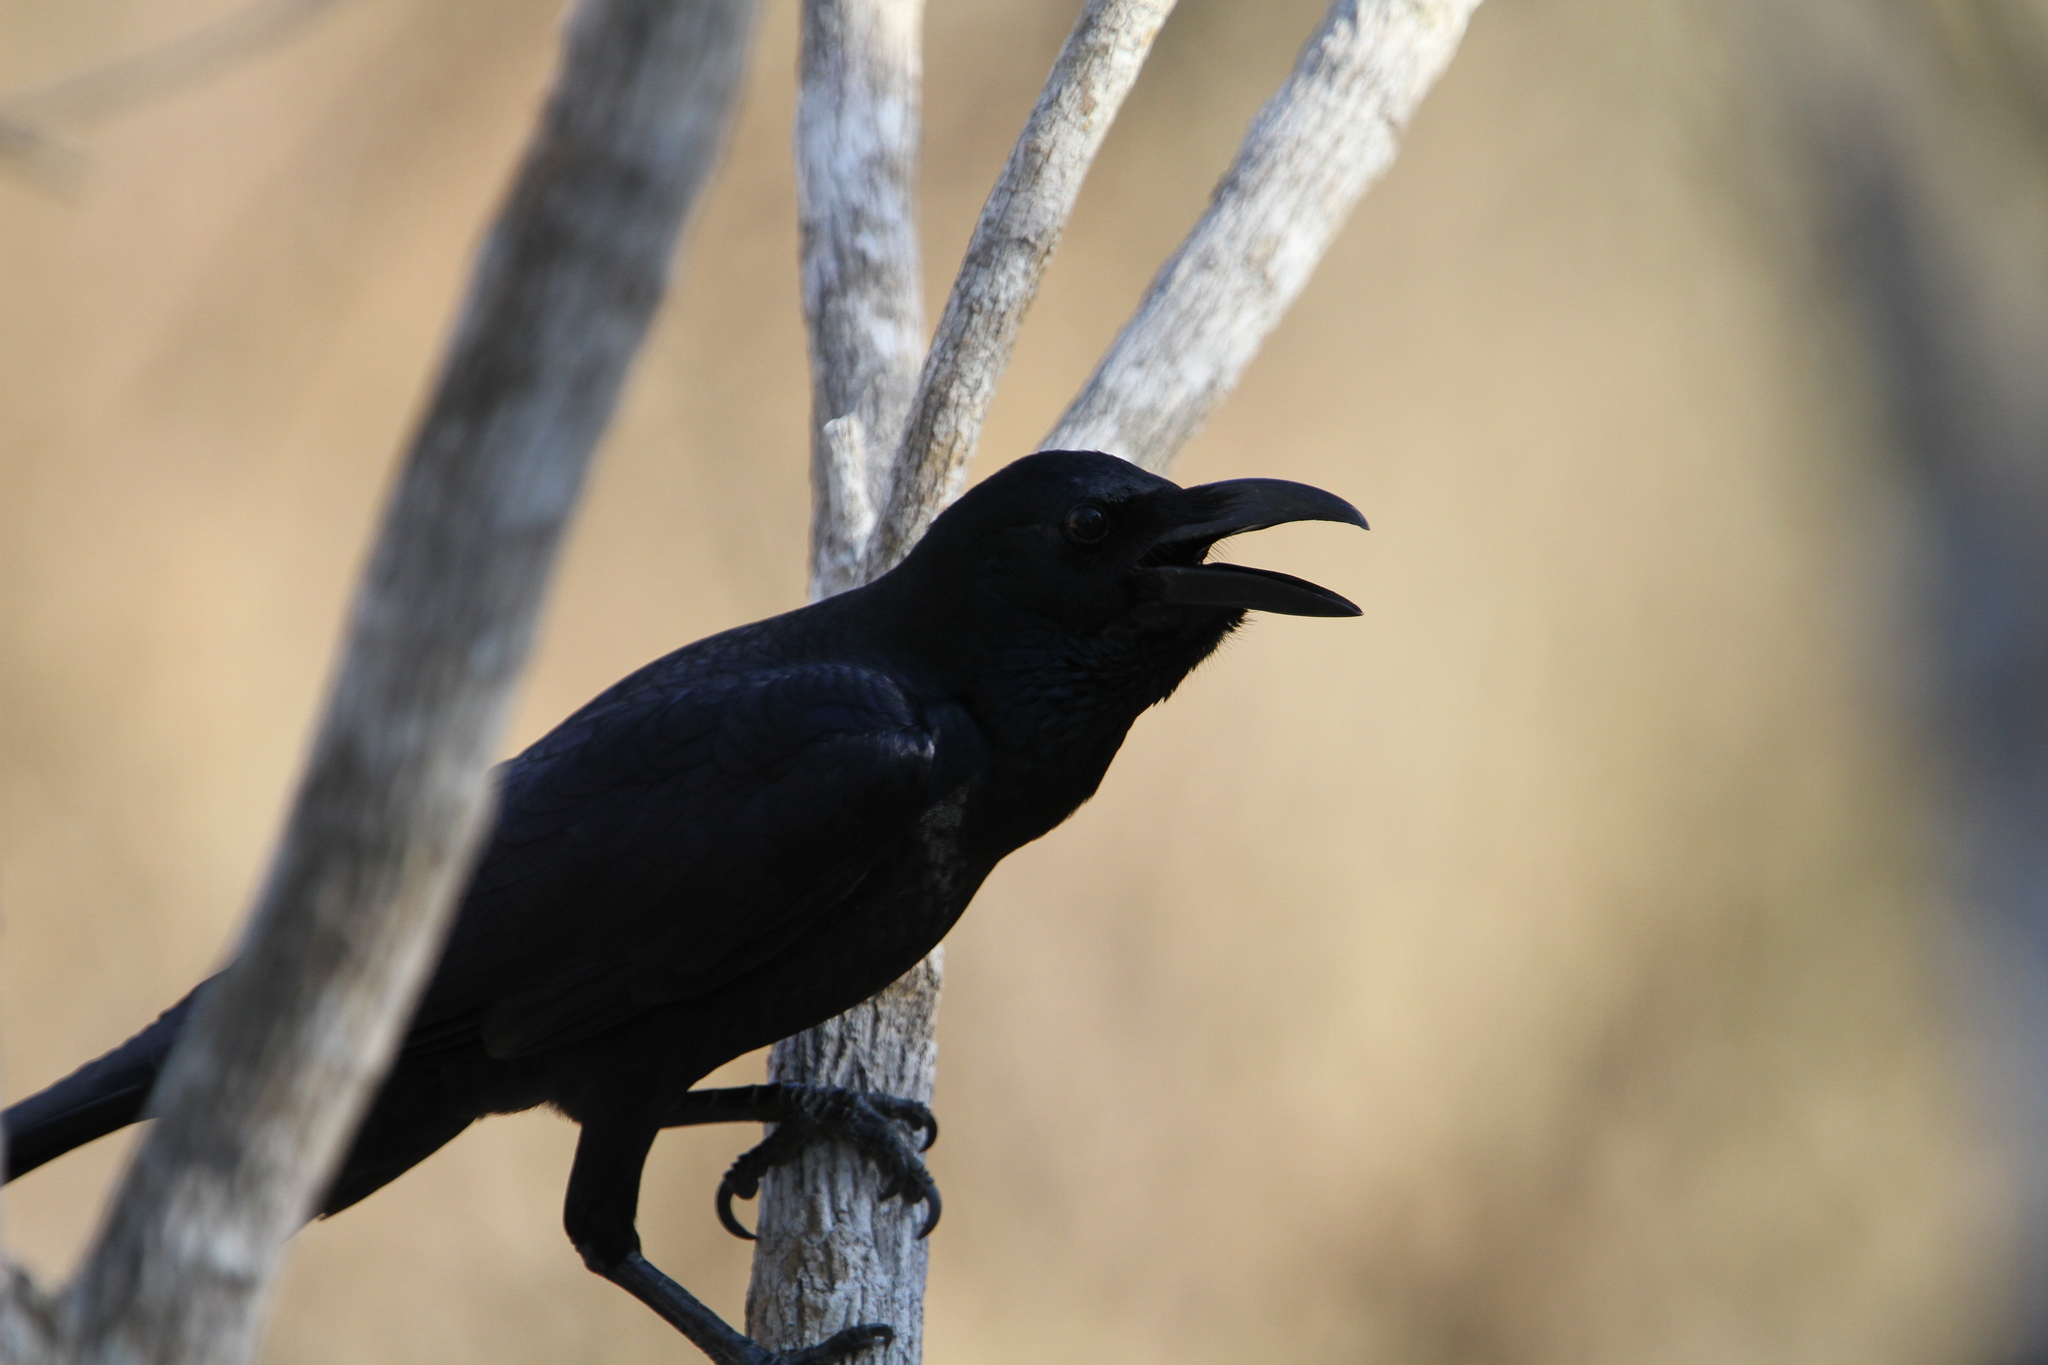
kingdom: Animalia
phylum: Chordata
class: Aves
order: Passeriformes
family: Corvidae
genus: Corvus
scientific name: Corvus macrorhynchos
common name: Large-billed crow
